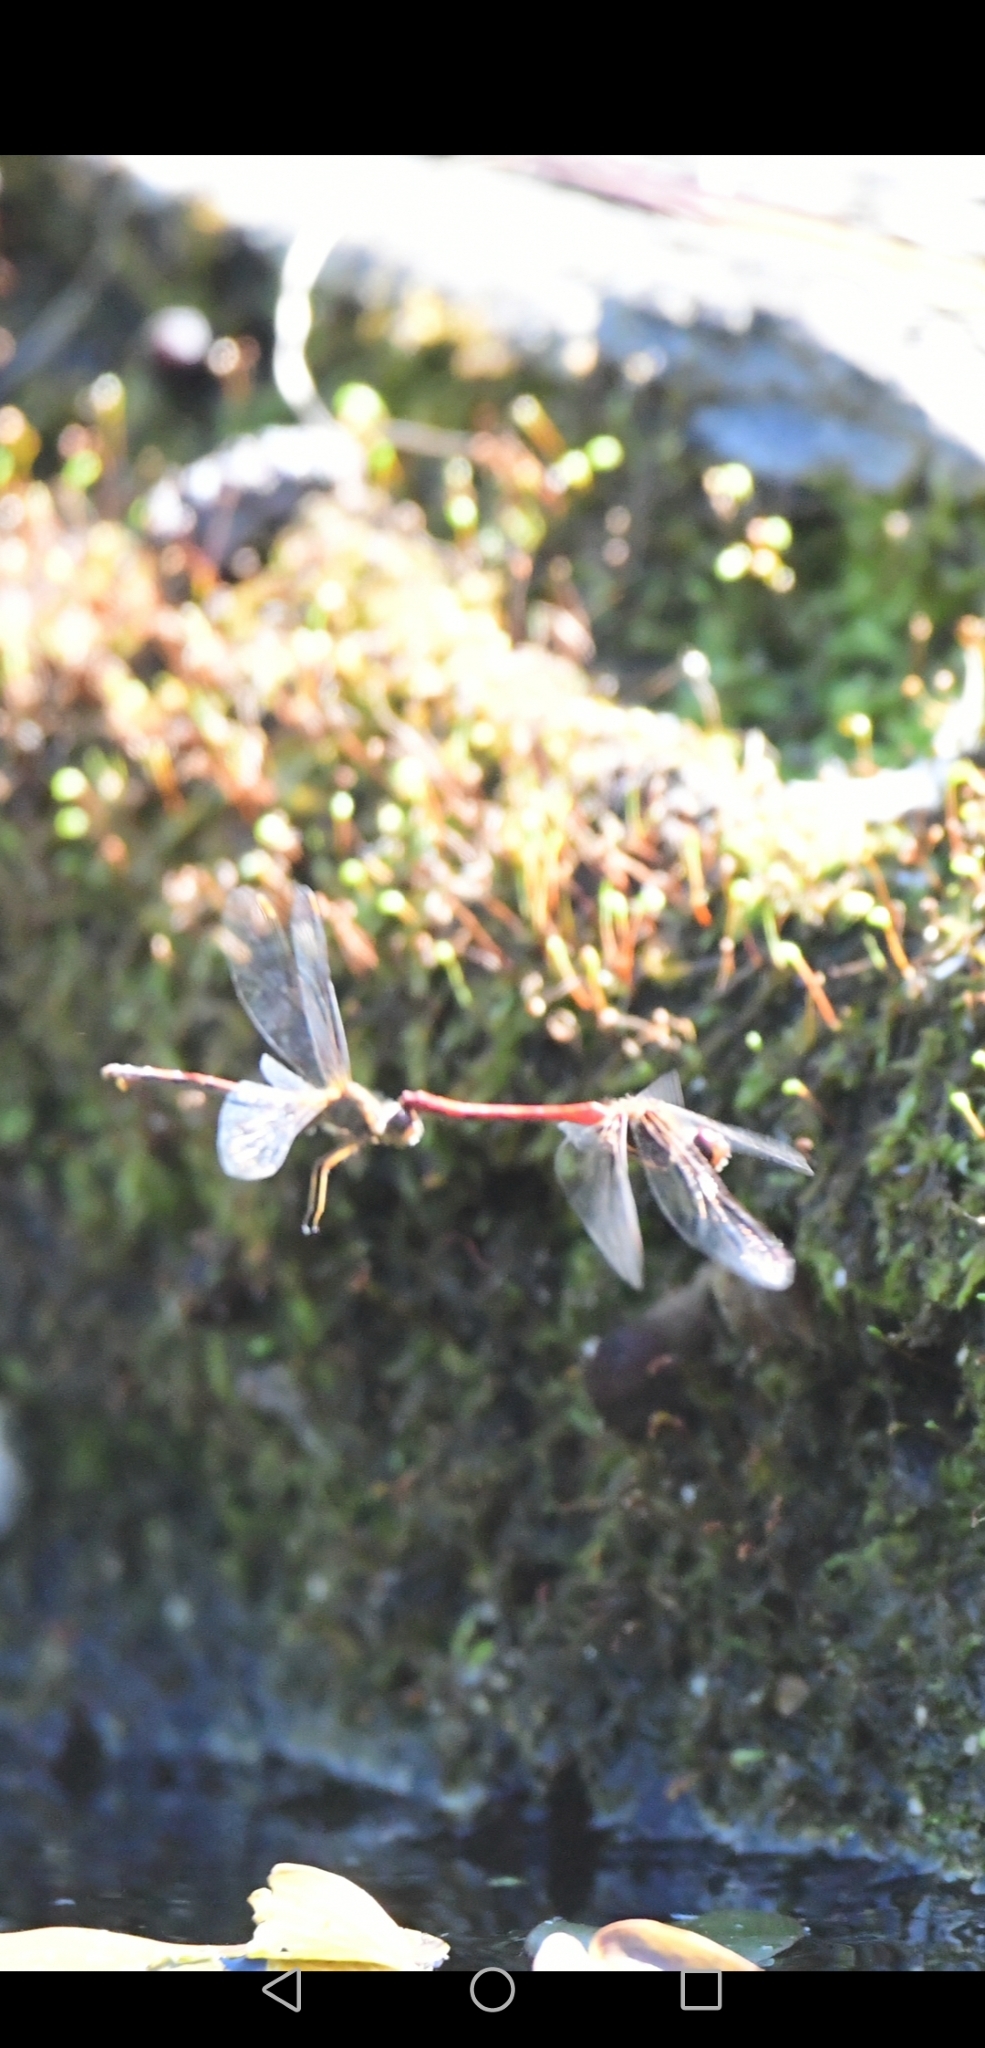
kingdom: Animalia
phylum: Arthropoda
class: Insecta
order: Odonata
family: Libellulidae
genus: Sympetrum
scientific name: Sympetrum vicinum
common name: Autumn meadowhawk
